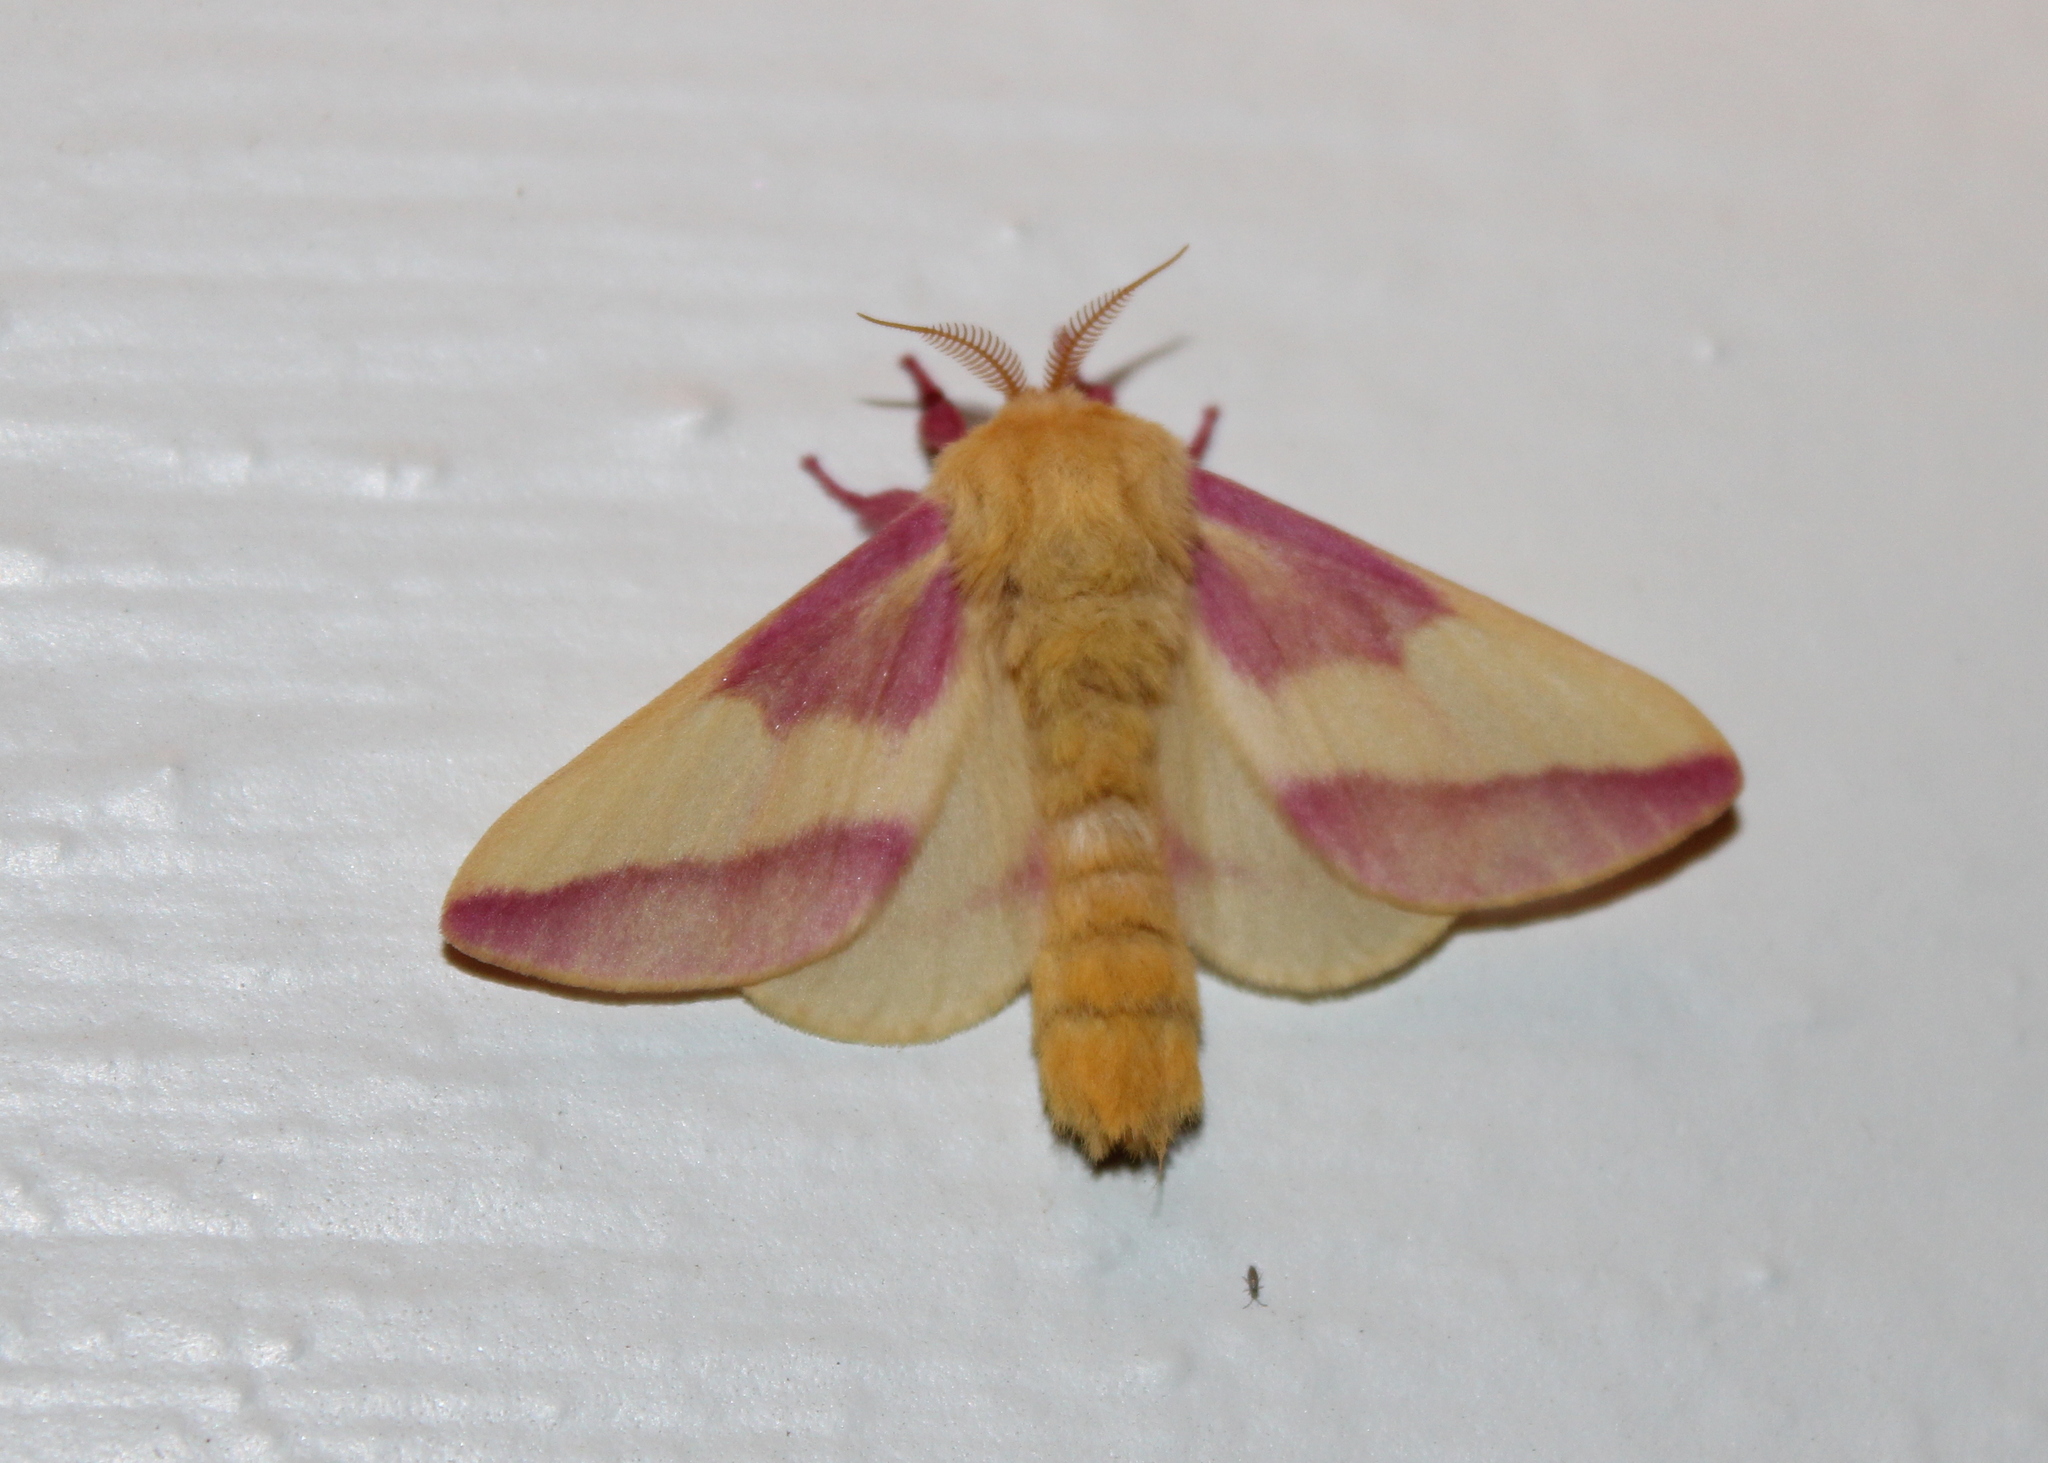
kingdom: Animalia
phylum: Arthropoda
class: Insecta
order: Lepidoptera
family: Saturniidae
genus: Dryocampa
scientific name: Dryocampa rubicunda
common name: Rosy maple moth
